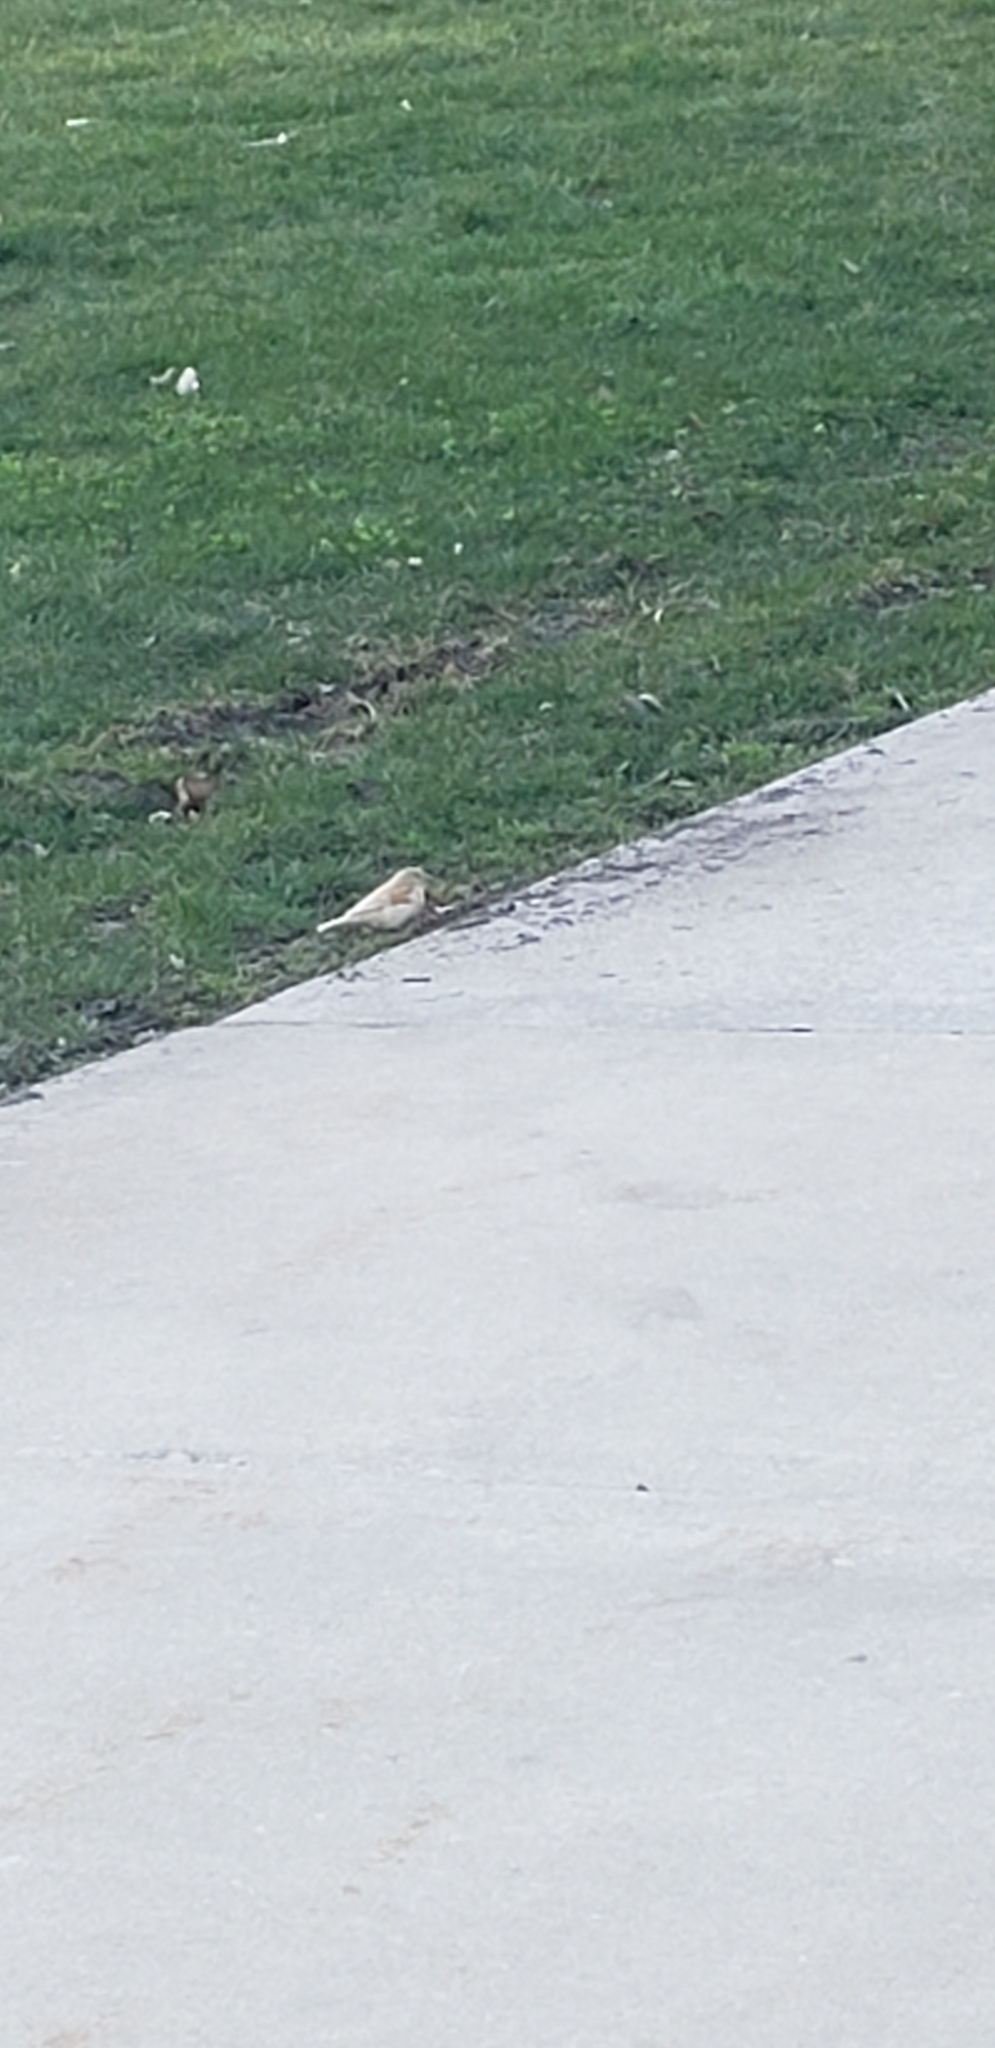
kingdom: Animalia
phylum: Chordata
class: Aves
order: Passeriformes
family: Passeridae
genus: Passer
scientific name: Passer domesticus
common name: House sparrow
